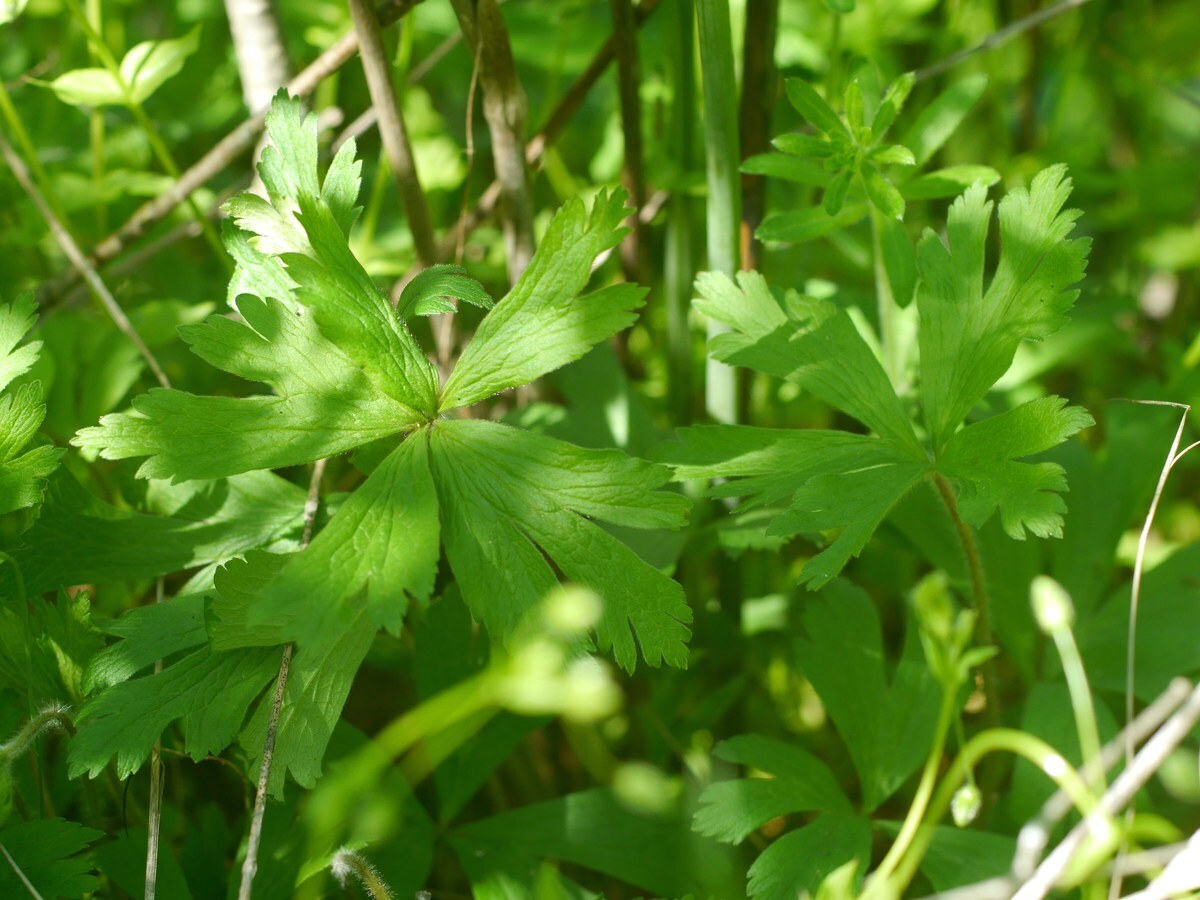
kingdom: Plantae
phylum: Tracheophyta
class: Magnoliopsida
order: Ranunculales
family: Ranunculaceae
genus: Anemone
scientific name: Anemone sylvestris
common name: Snowdrop anemone
